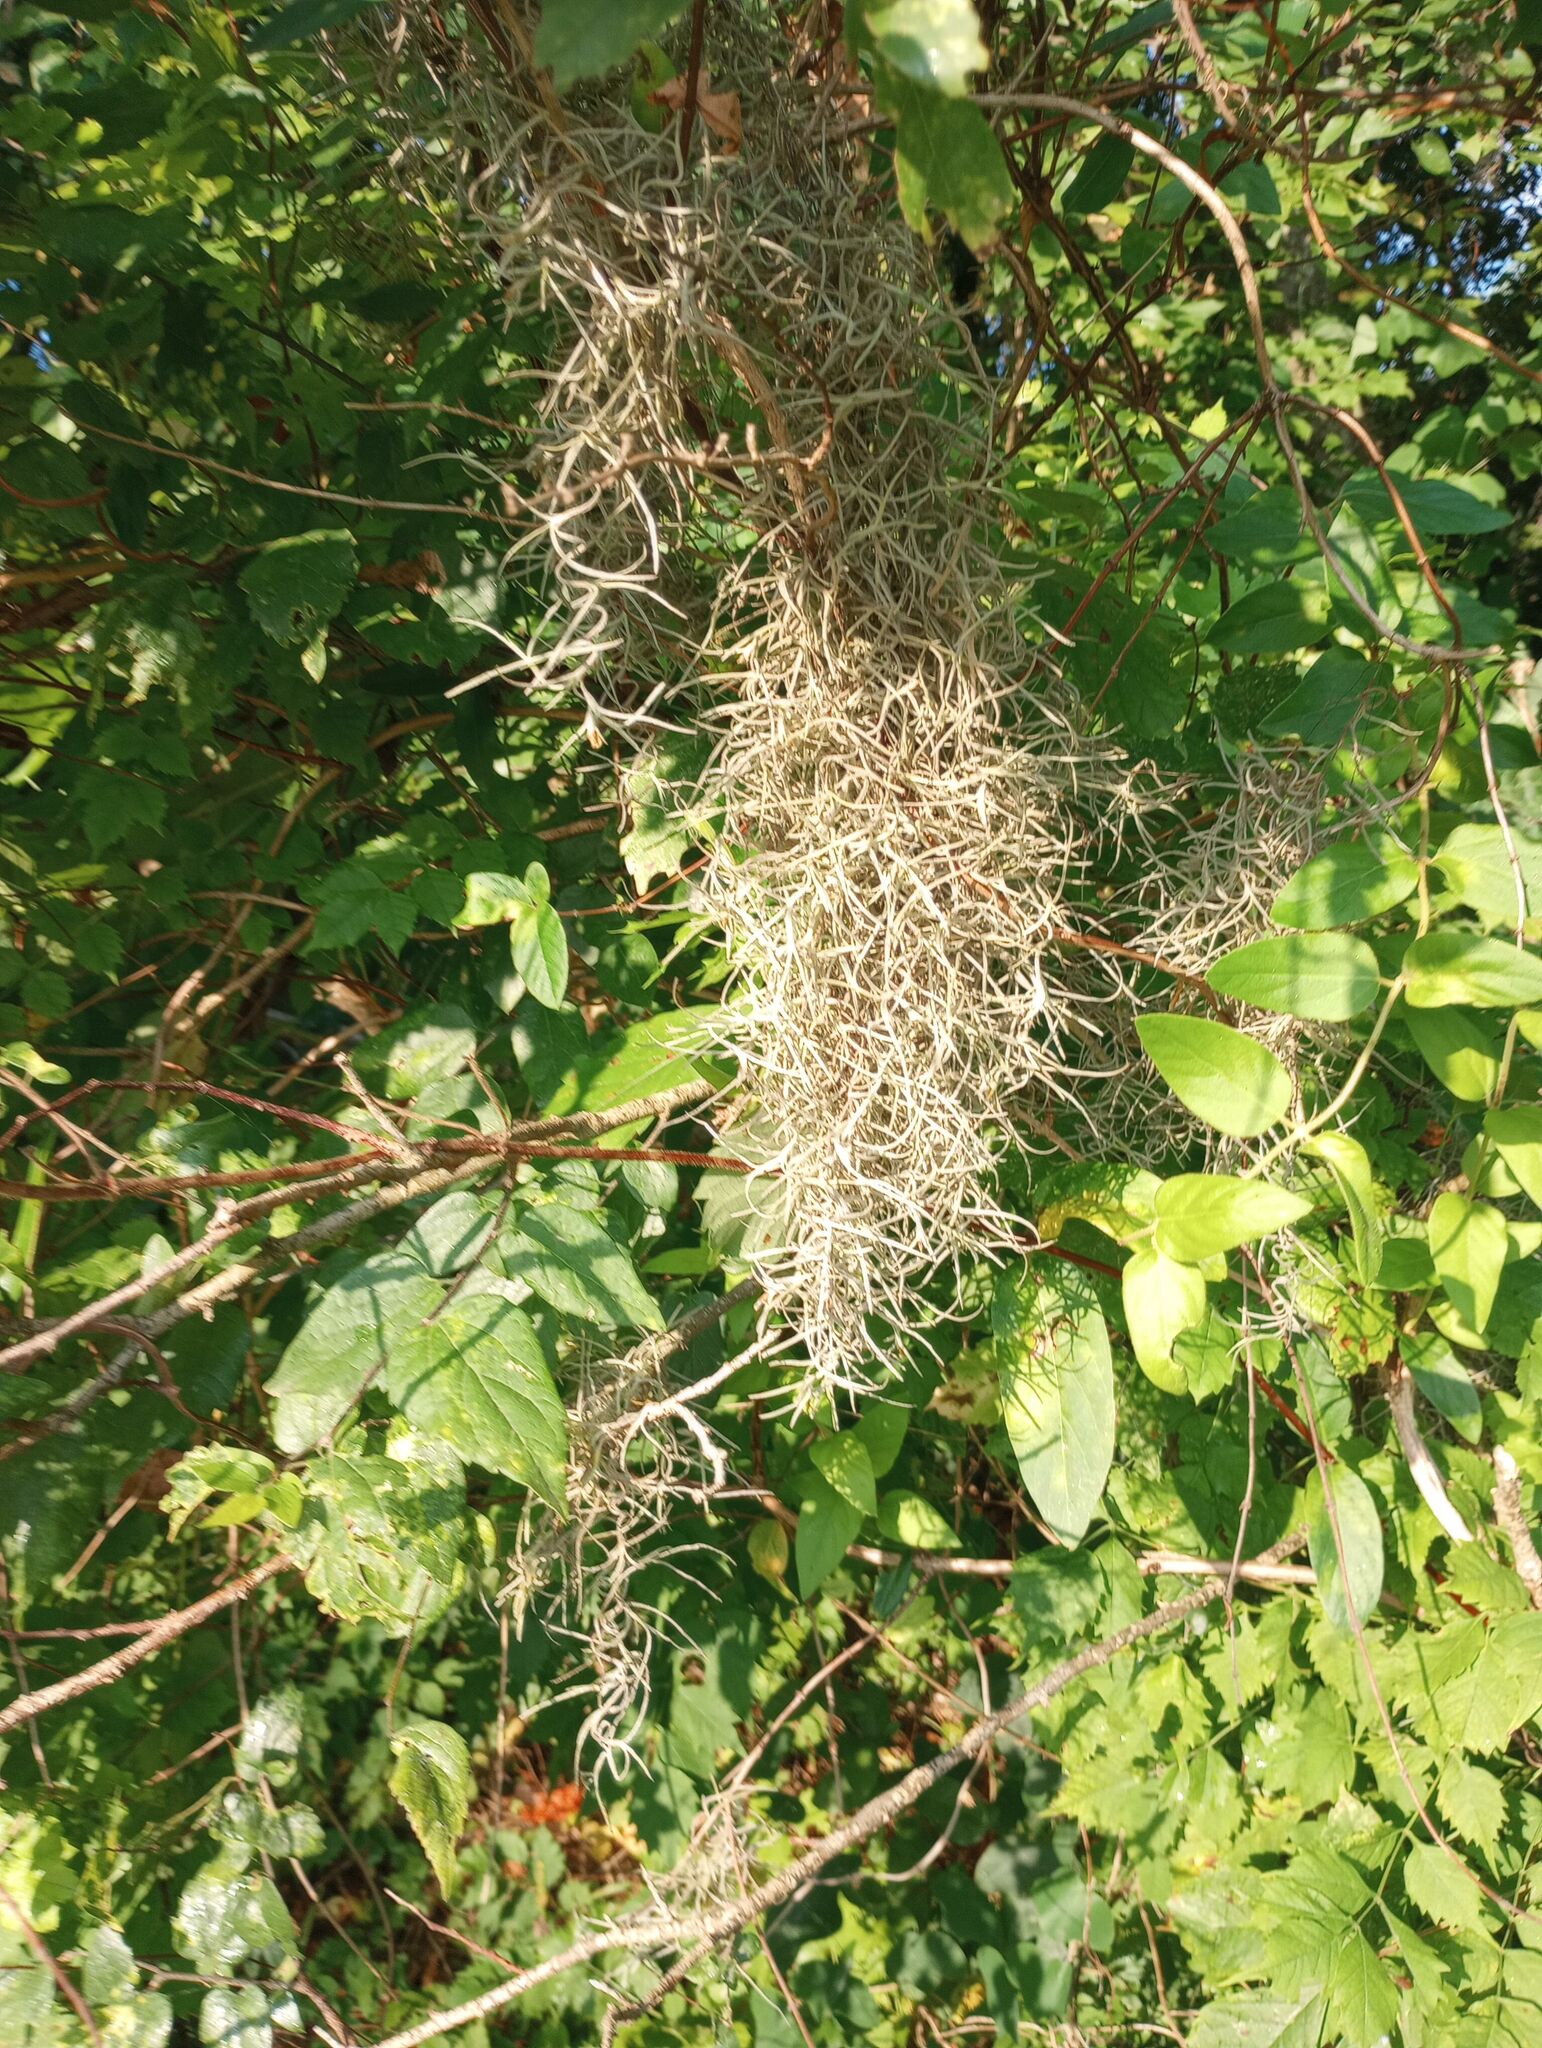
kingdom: Plantae
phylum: Tracheophyta
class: Liliopsida
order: Poales
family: Bromeliaceae
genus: Tillandsia
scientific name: Tillandsia usneoides
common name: Spanish moss
